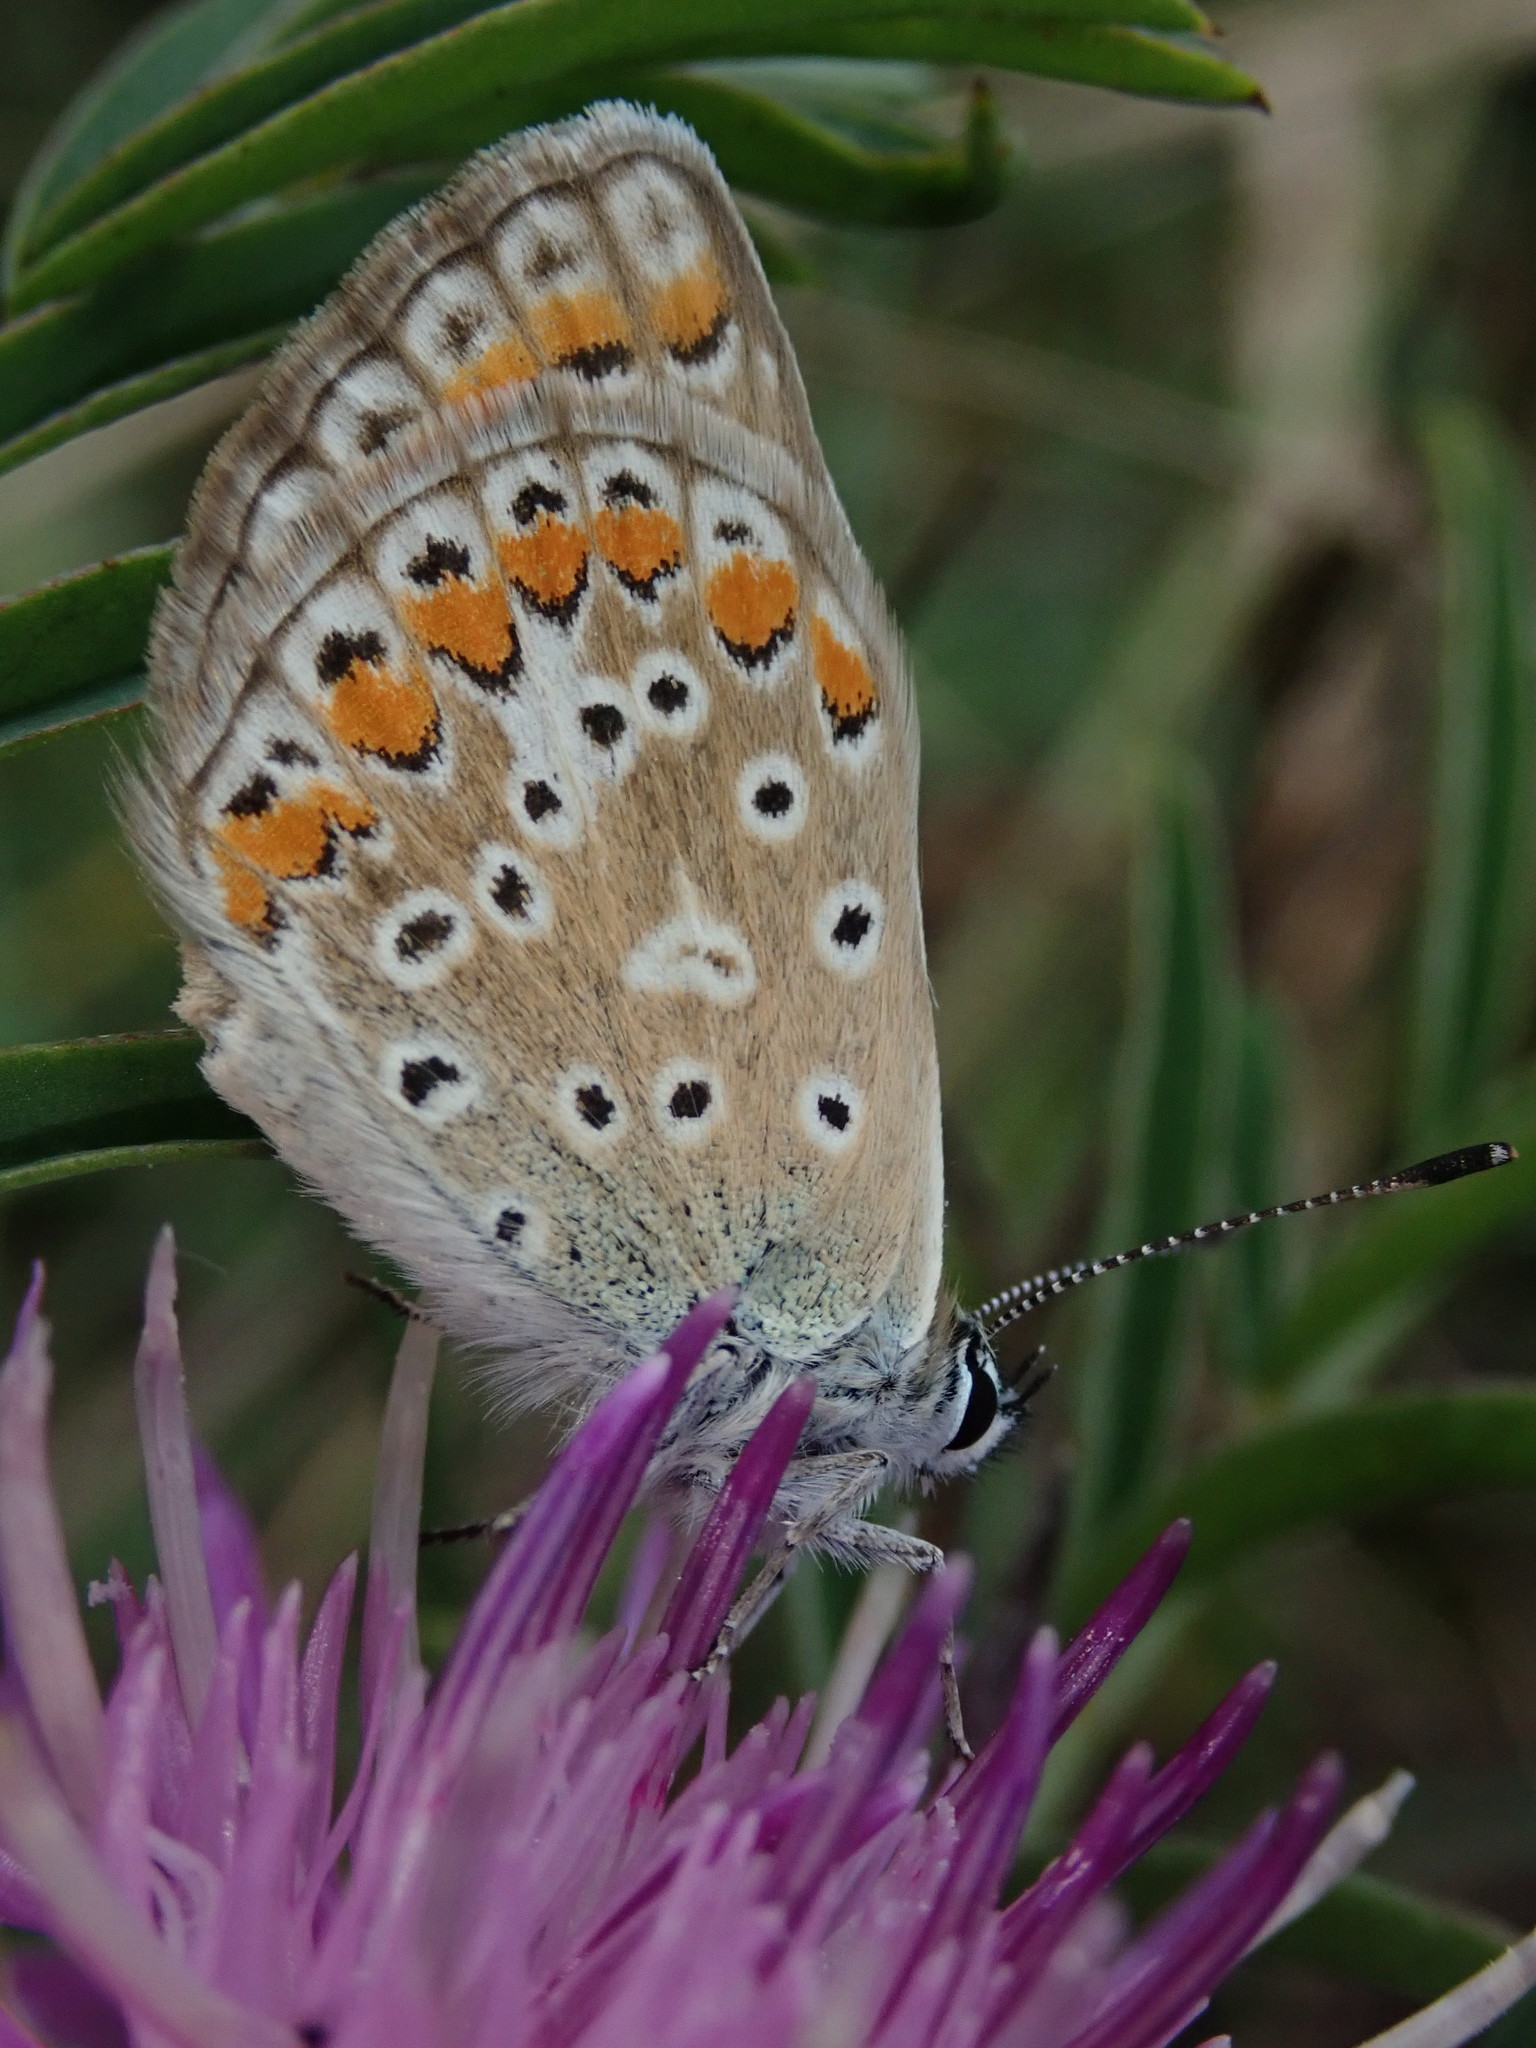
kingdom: Animalia
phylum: Arthropoda
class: Insecta
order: Lepidoptera
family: Lycaenidae
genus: Polyommatus
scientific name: Polyommatus icarus
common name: Common blue
